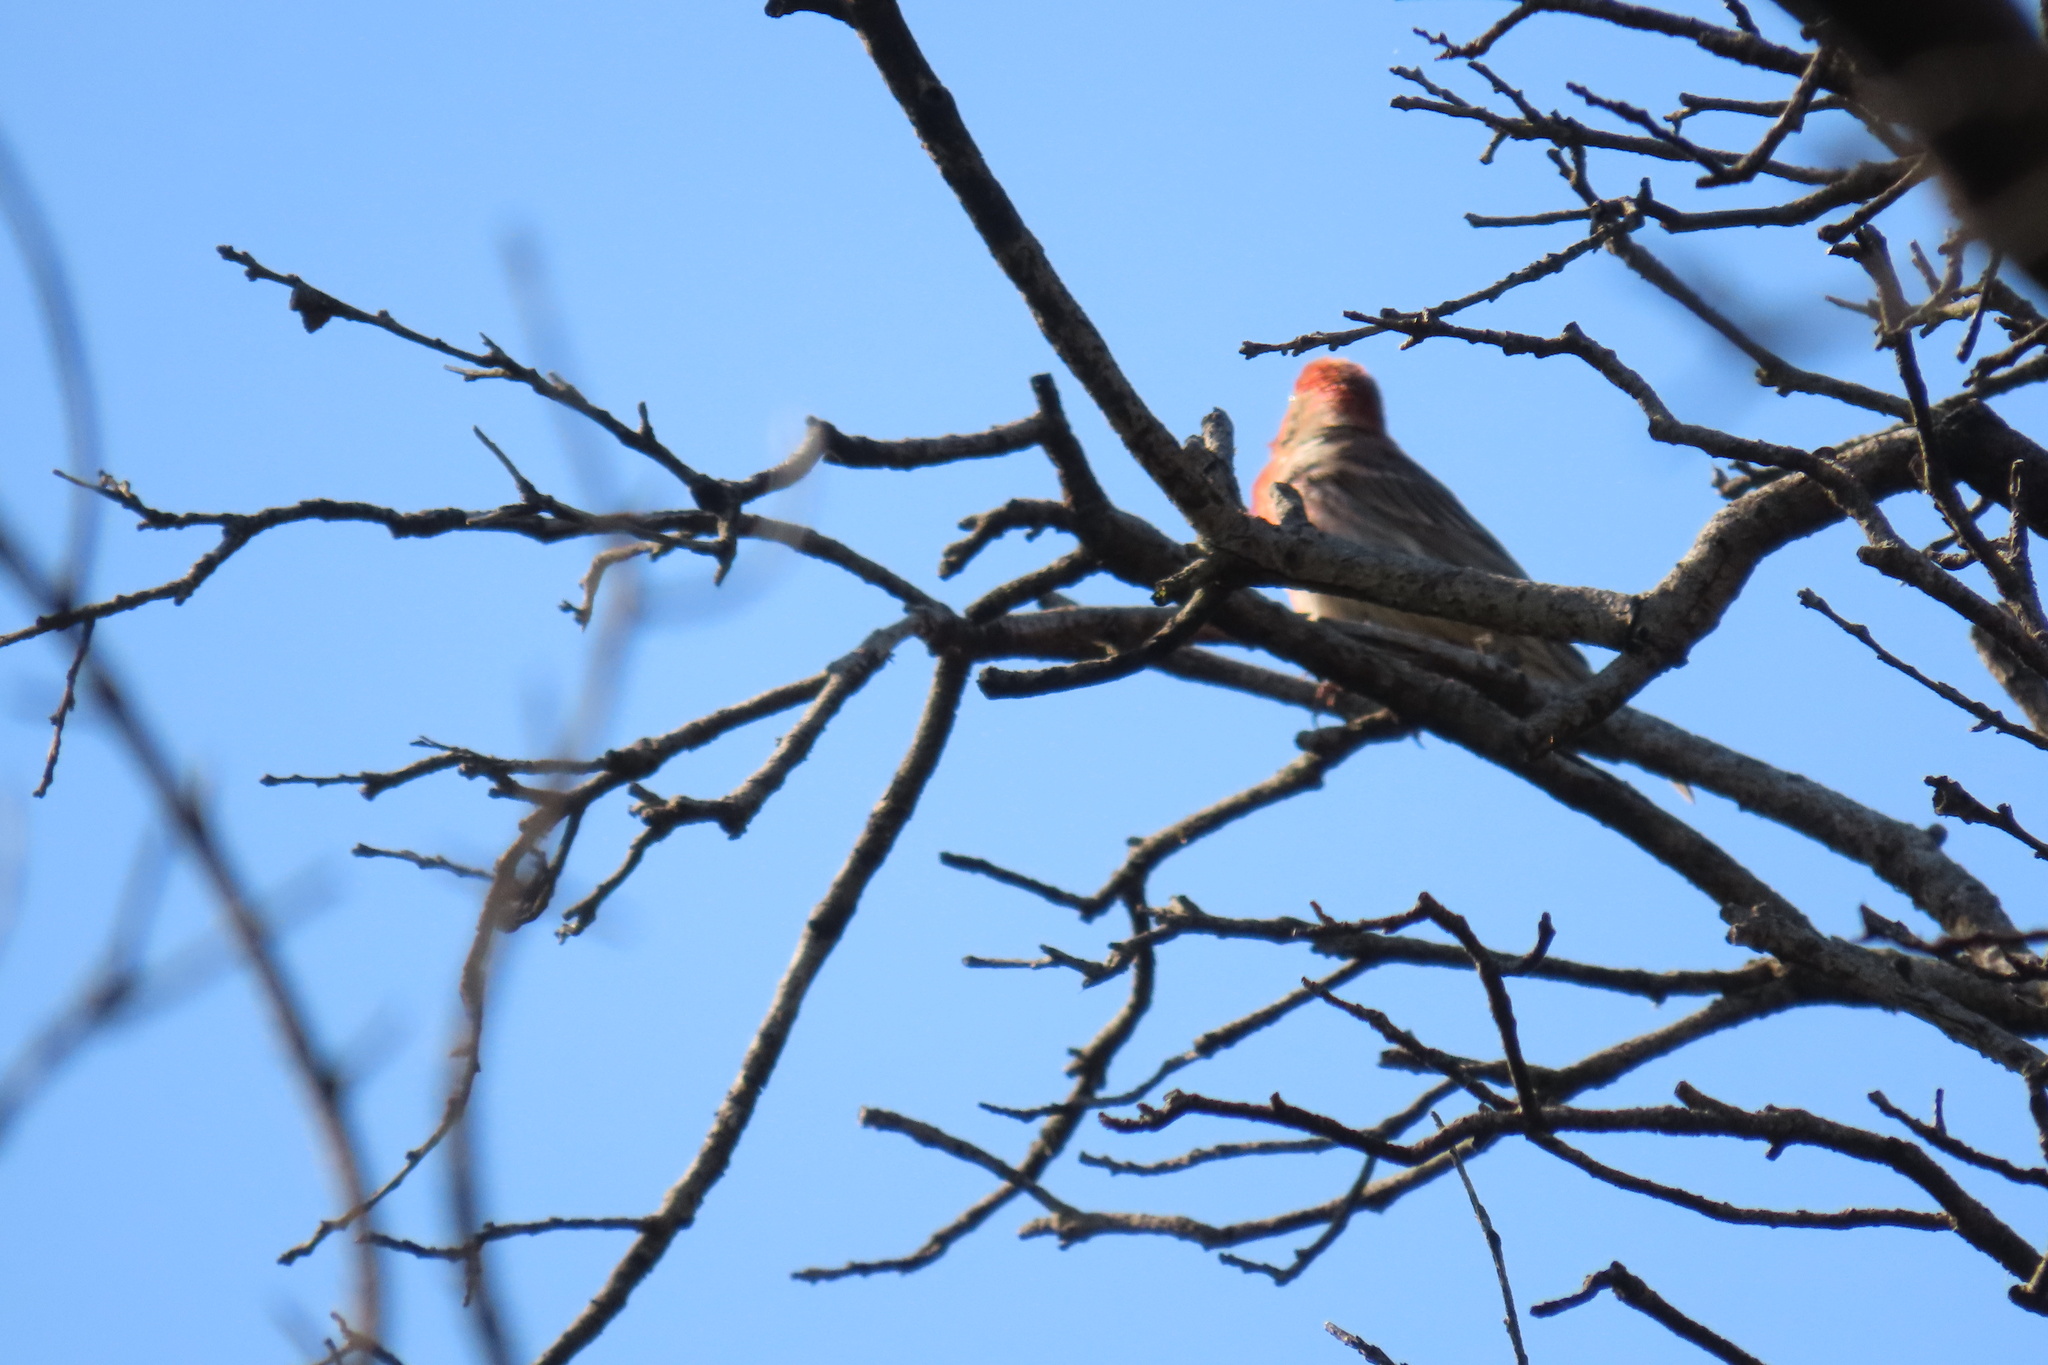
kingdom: Animalia
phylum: Chordata
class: Aves
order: Passeriformes
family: Fringillidae
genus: Haemorhous
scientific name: Haemorhous mexicanus
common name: House finch
